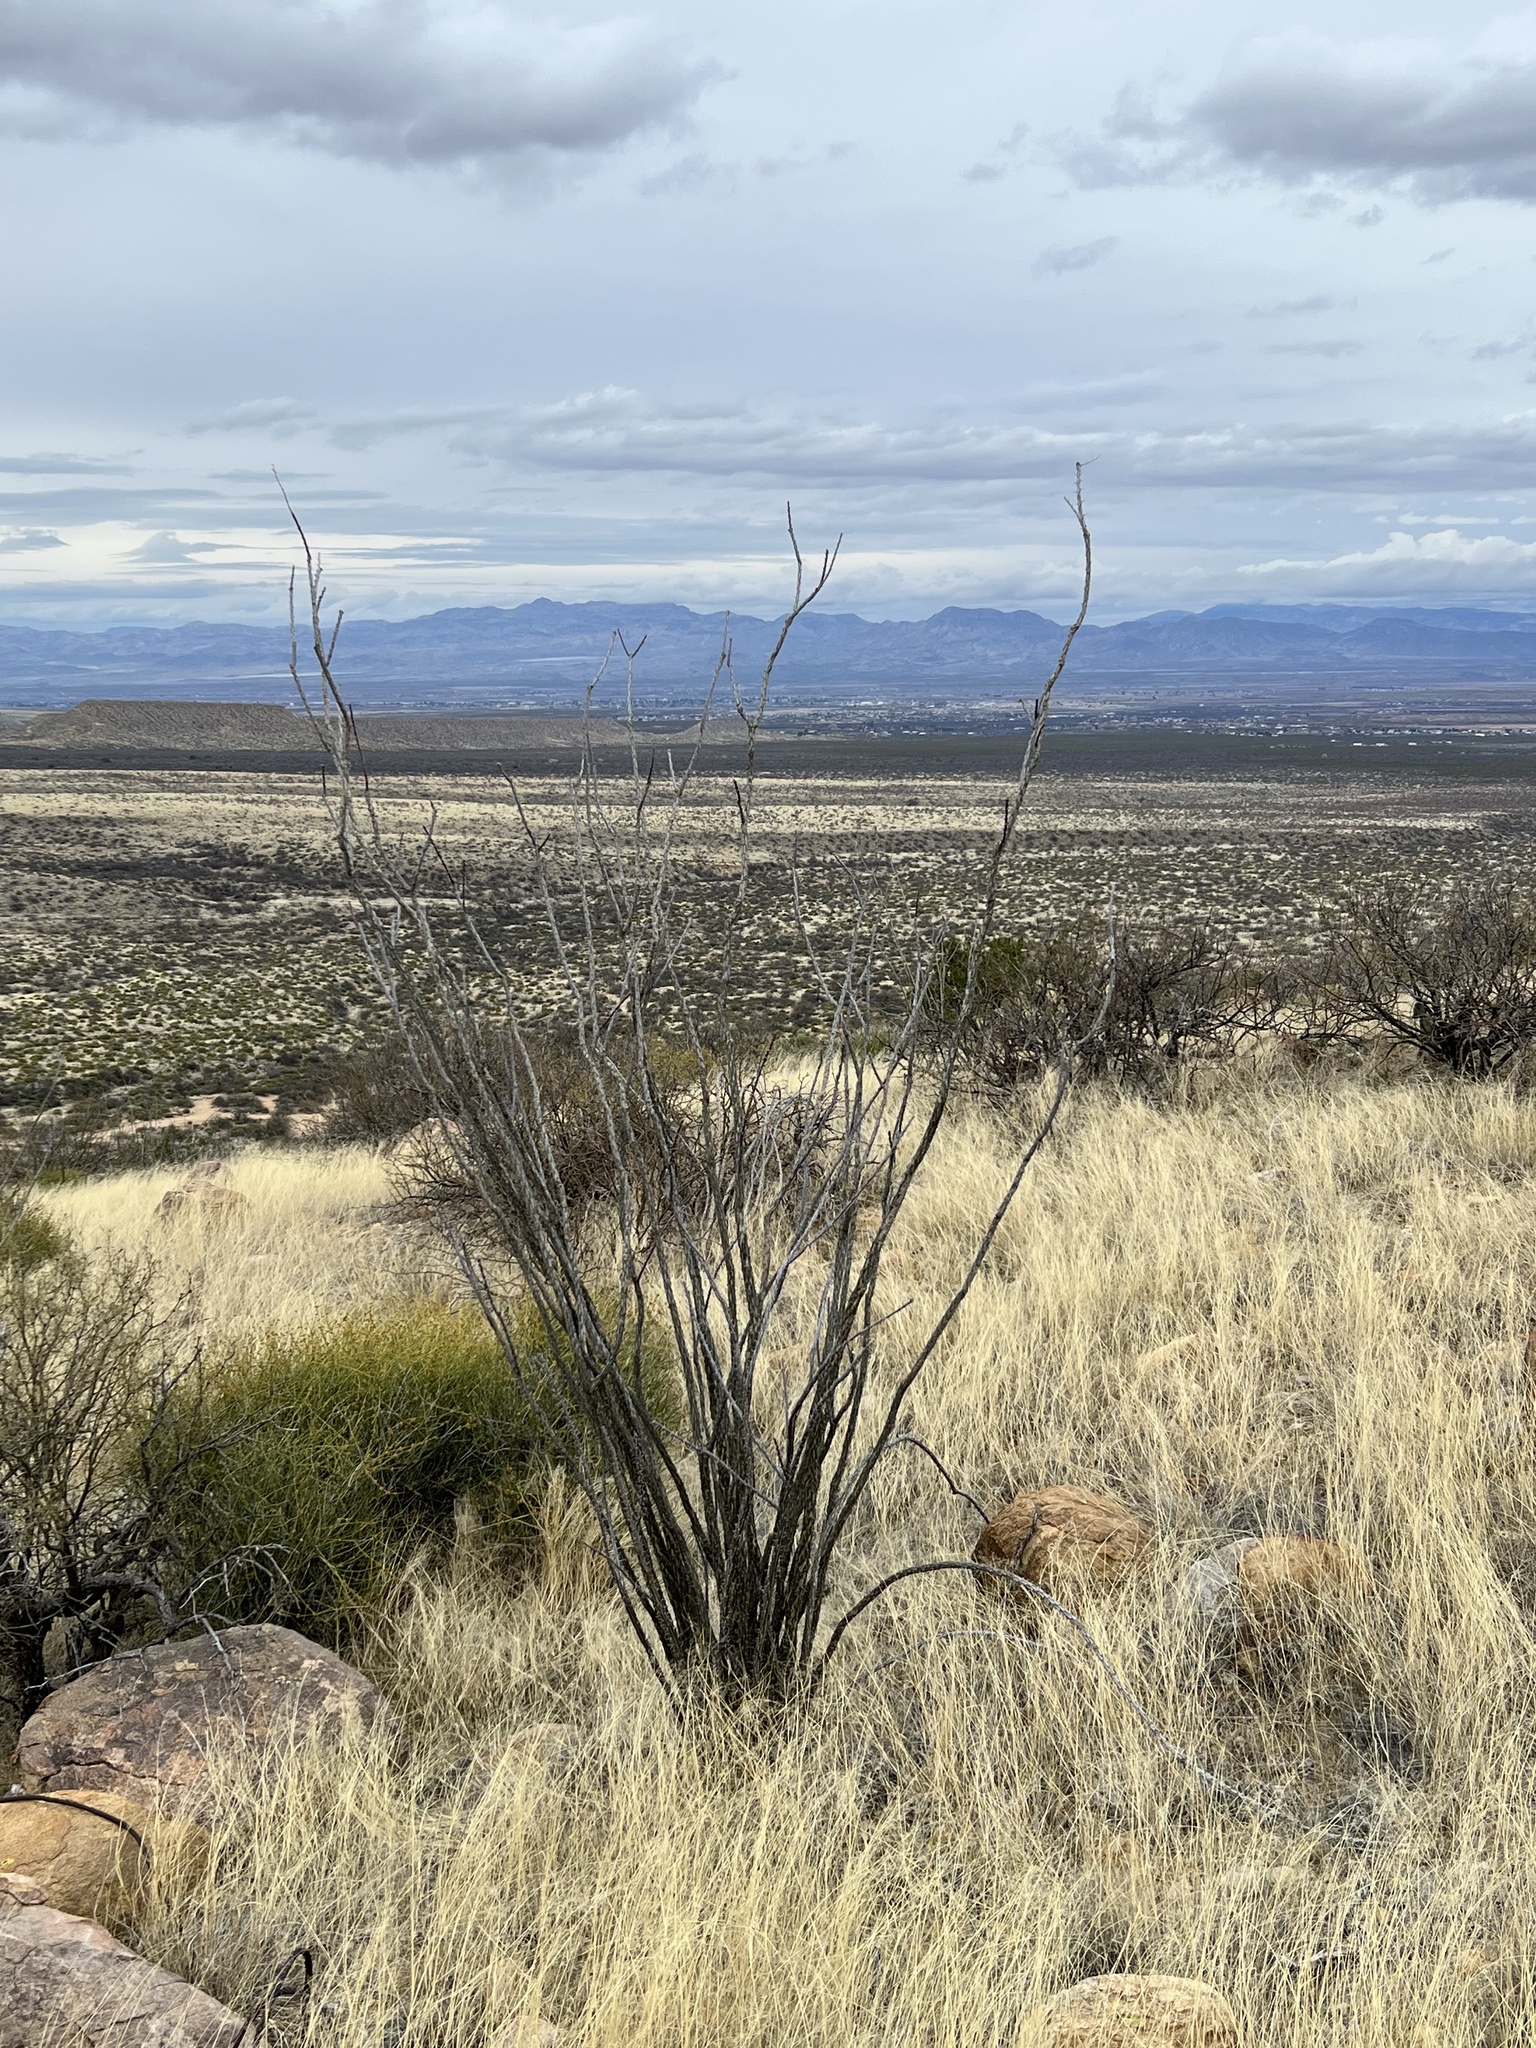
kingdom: Plantae
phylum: Tracheophyta
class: Magnoliopsida
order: Ericales
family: Fouquieriaceae
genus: Fouquieria
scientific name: Fouquieria splendens
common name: Vine-cactus
